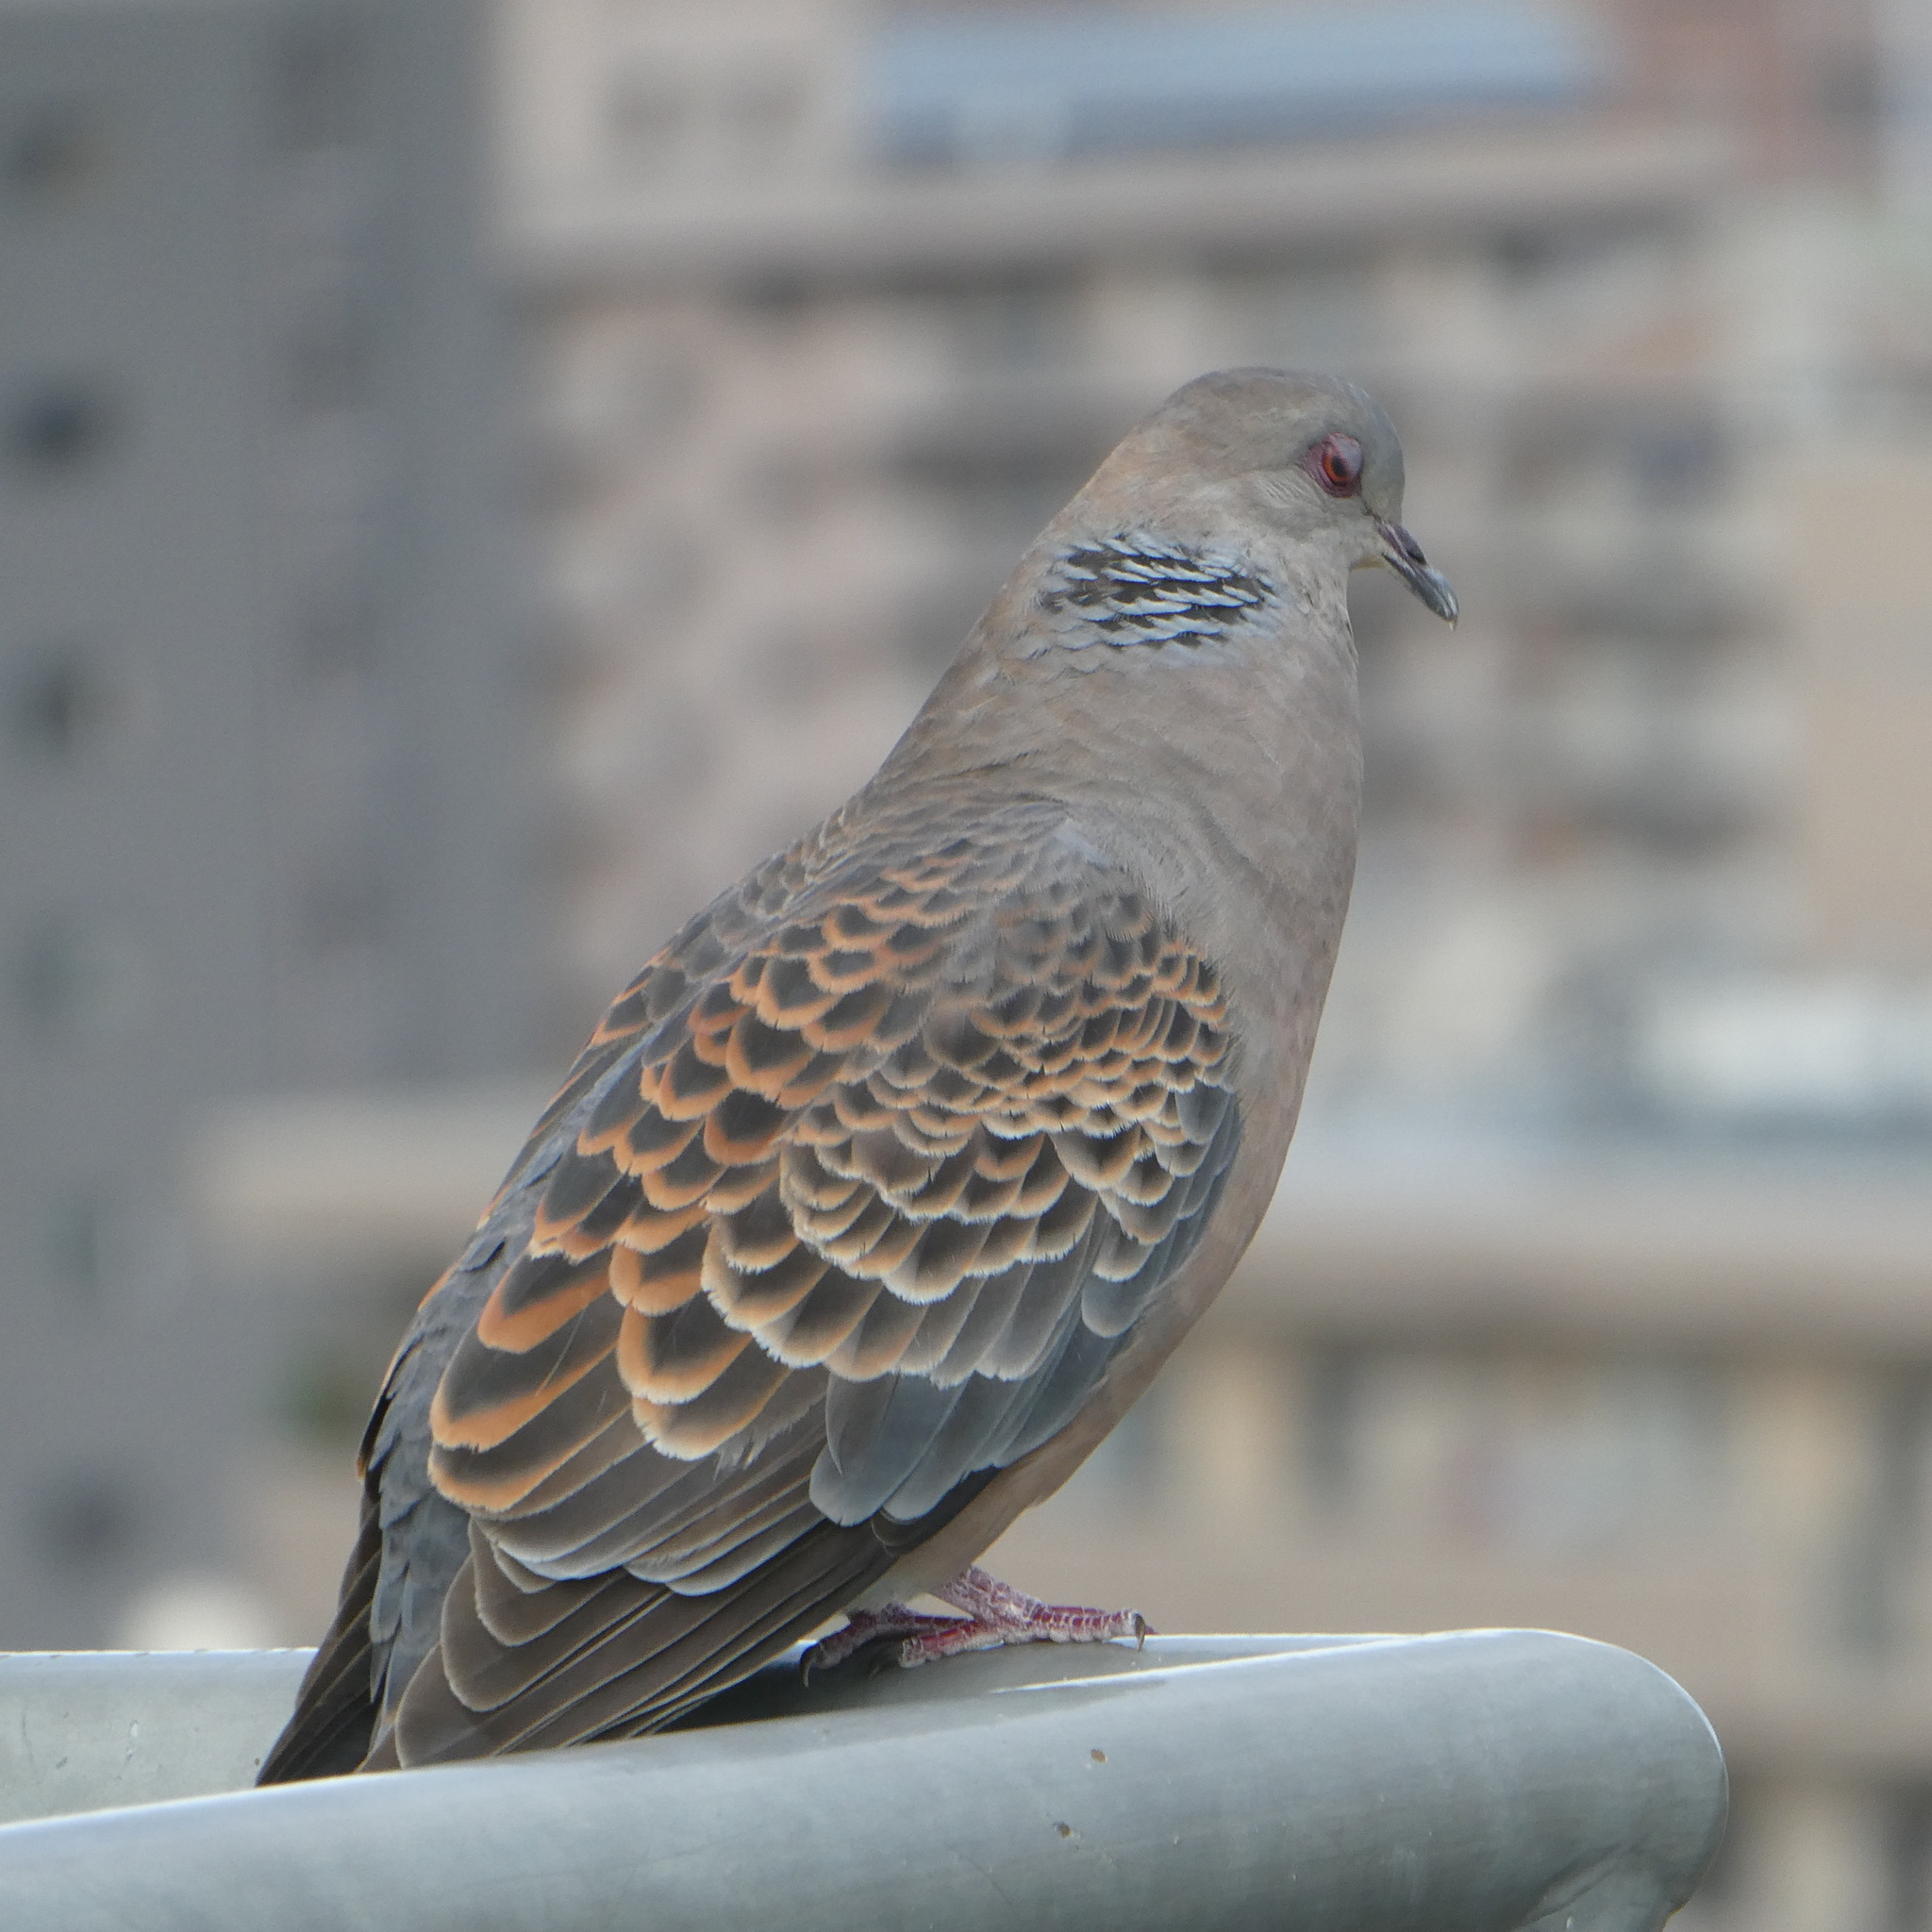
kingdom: Animalia
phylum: Chordata
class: Aves
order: Columbiformes
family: Columbidae
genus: Streptopelia
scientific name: Streptopelia orientalis
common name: Oriental turtle dove
